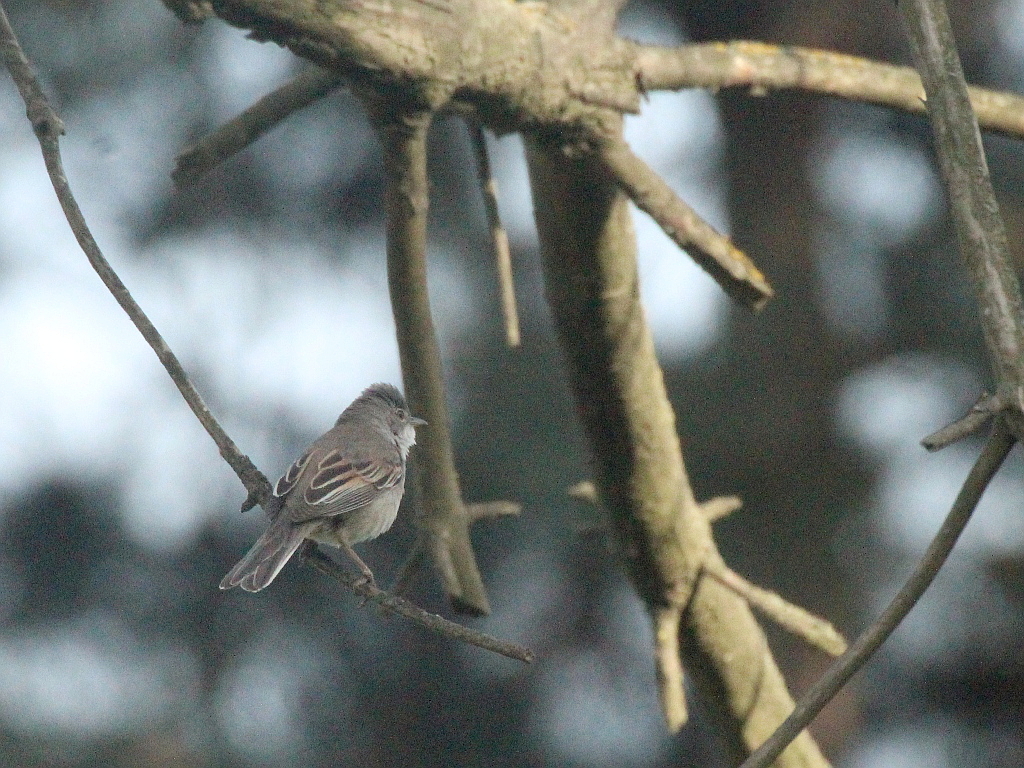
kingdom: Animalia
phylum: Chordata
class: Aves
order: Passeriformes
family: Sylviidae
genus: Sylvia
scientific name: Sylvia communis
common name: Common whitethroat
